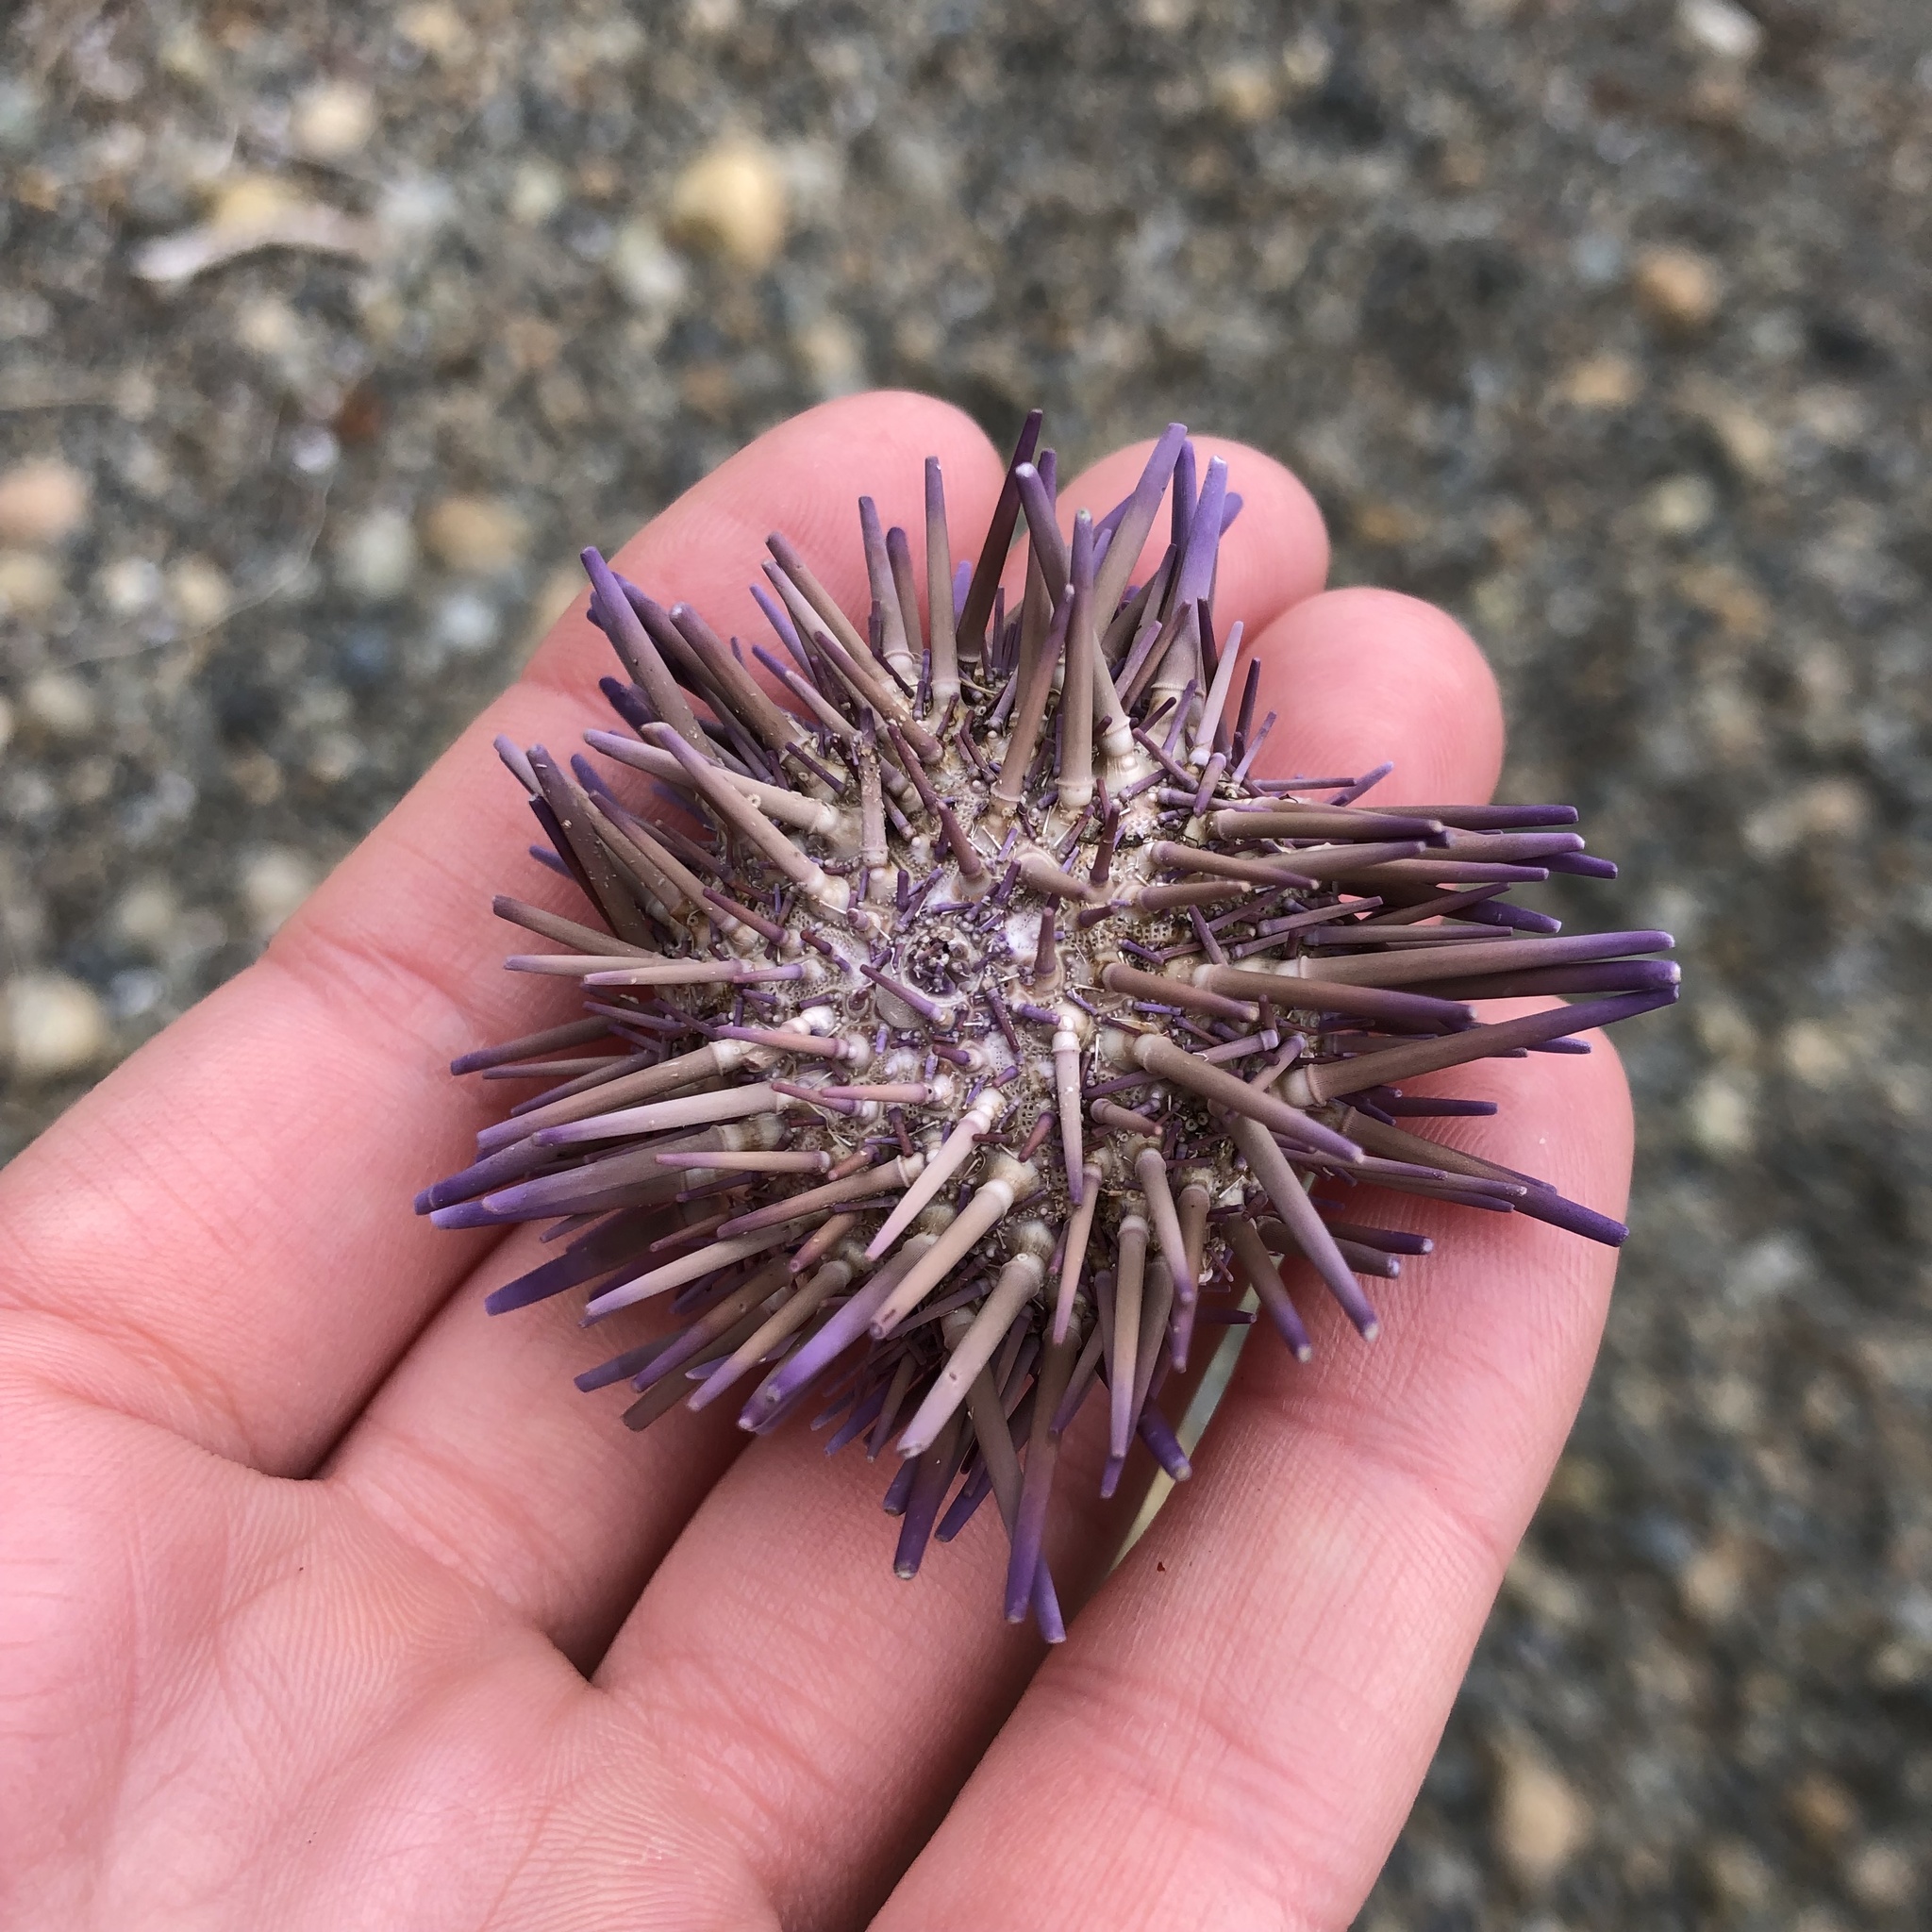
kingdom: Animalia
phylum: Echinodermata
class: Echinoidea
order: Camarodonta
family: Strongylocentrotidae
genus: Strongylocentrotus
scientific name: Strongylocentrotus purpuratus
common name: Purple sea urchin
